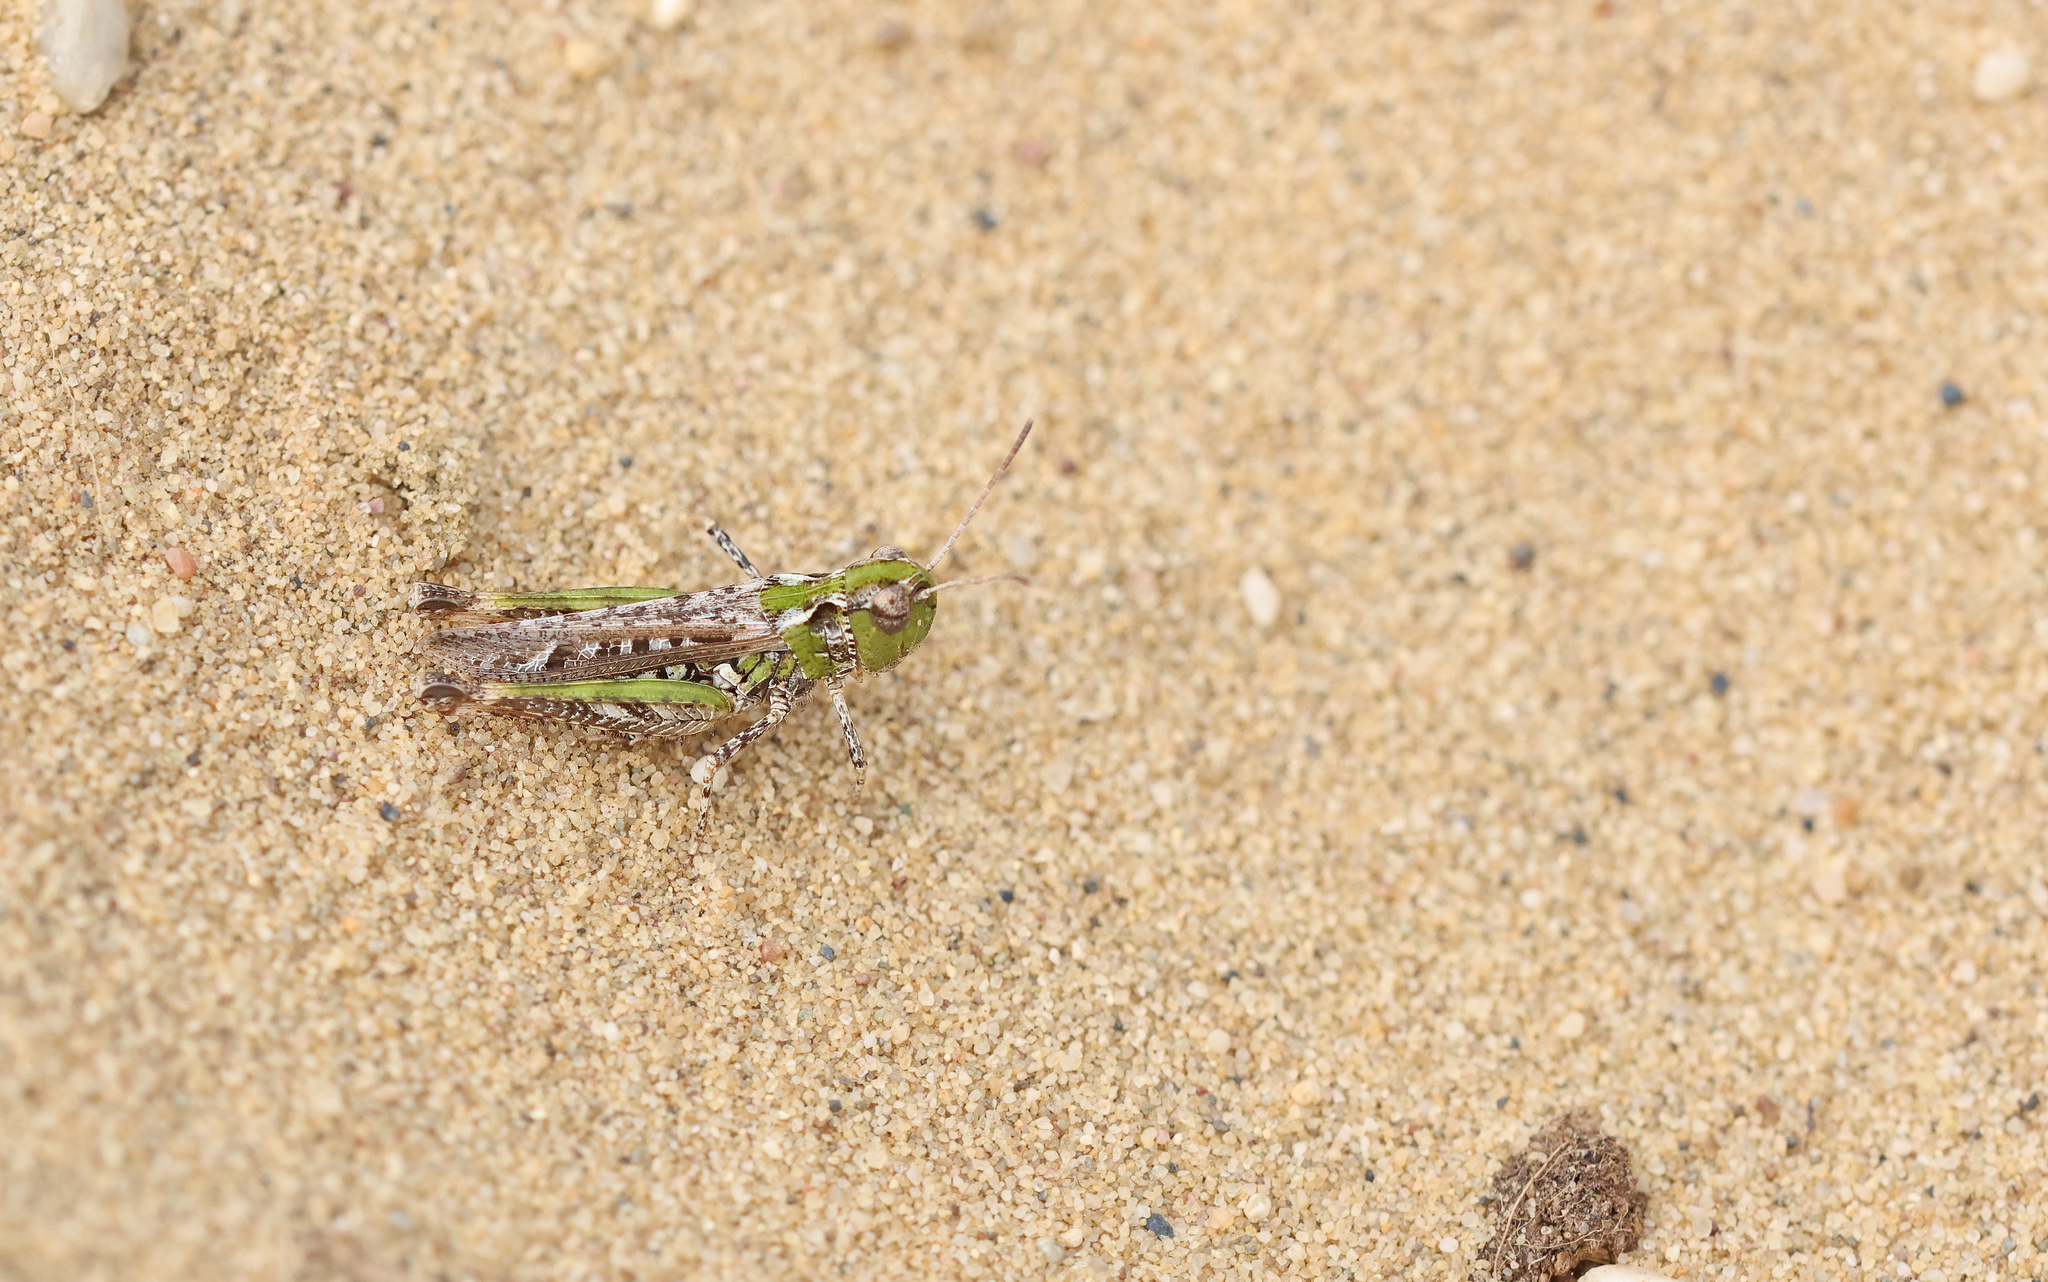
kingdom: Animalia
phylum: Arthropoda
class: Insecta
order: Orthoptera
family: Acrididae
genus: Myrmeleotettix
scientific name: Myrmeleotettix maculatus
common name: Mottled grasshopper
